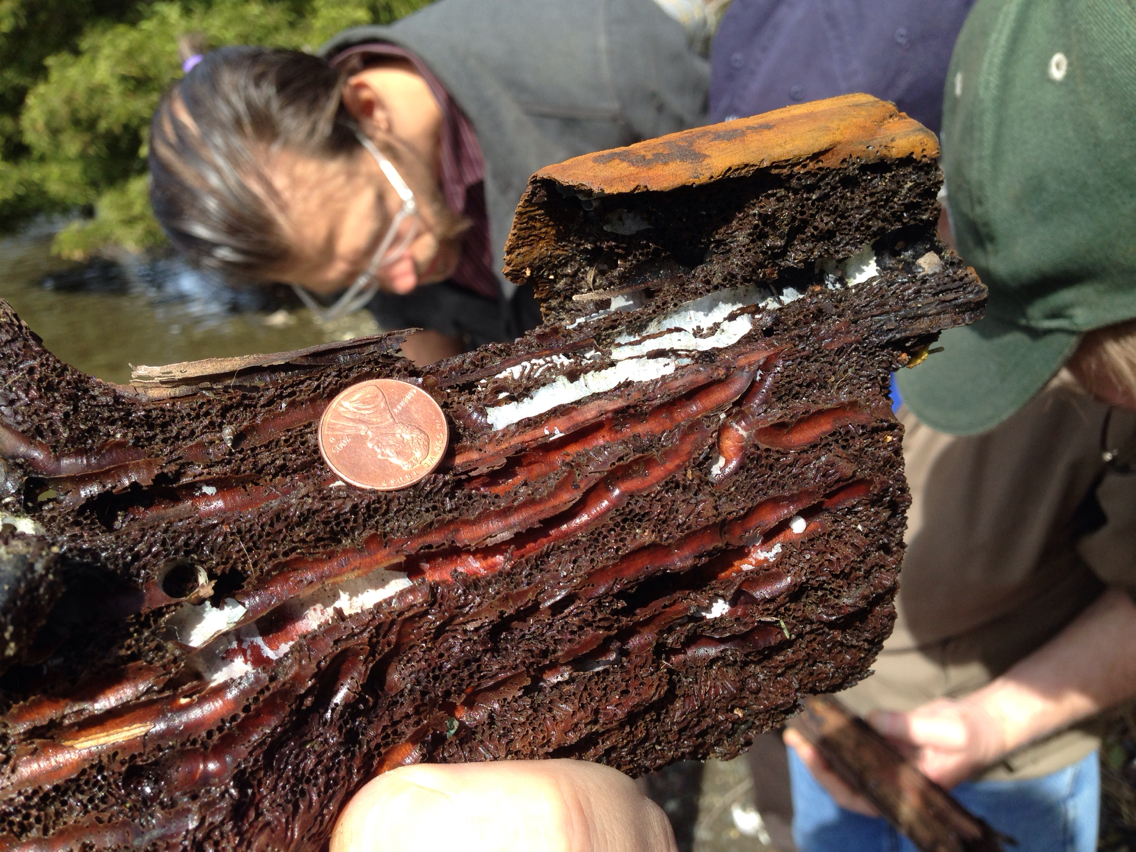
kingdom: Animalia
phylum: Mollusca
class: Bivalvia
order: Myida
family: Teredinidae
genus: Teredo
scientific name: Teredo navalis
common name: Great shipworm
